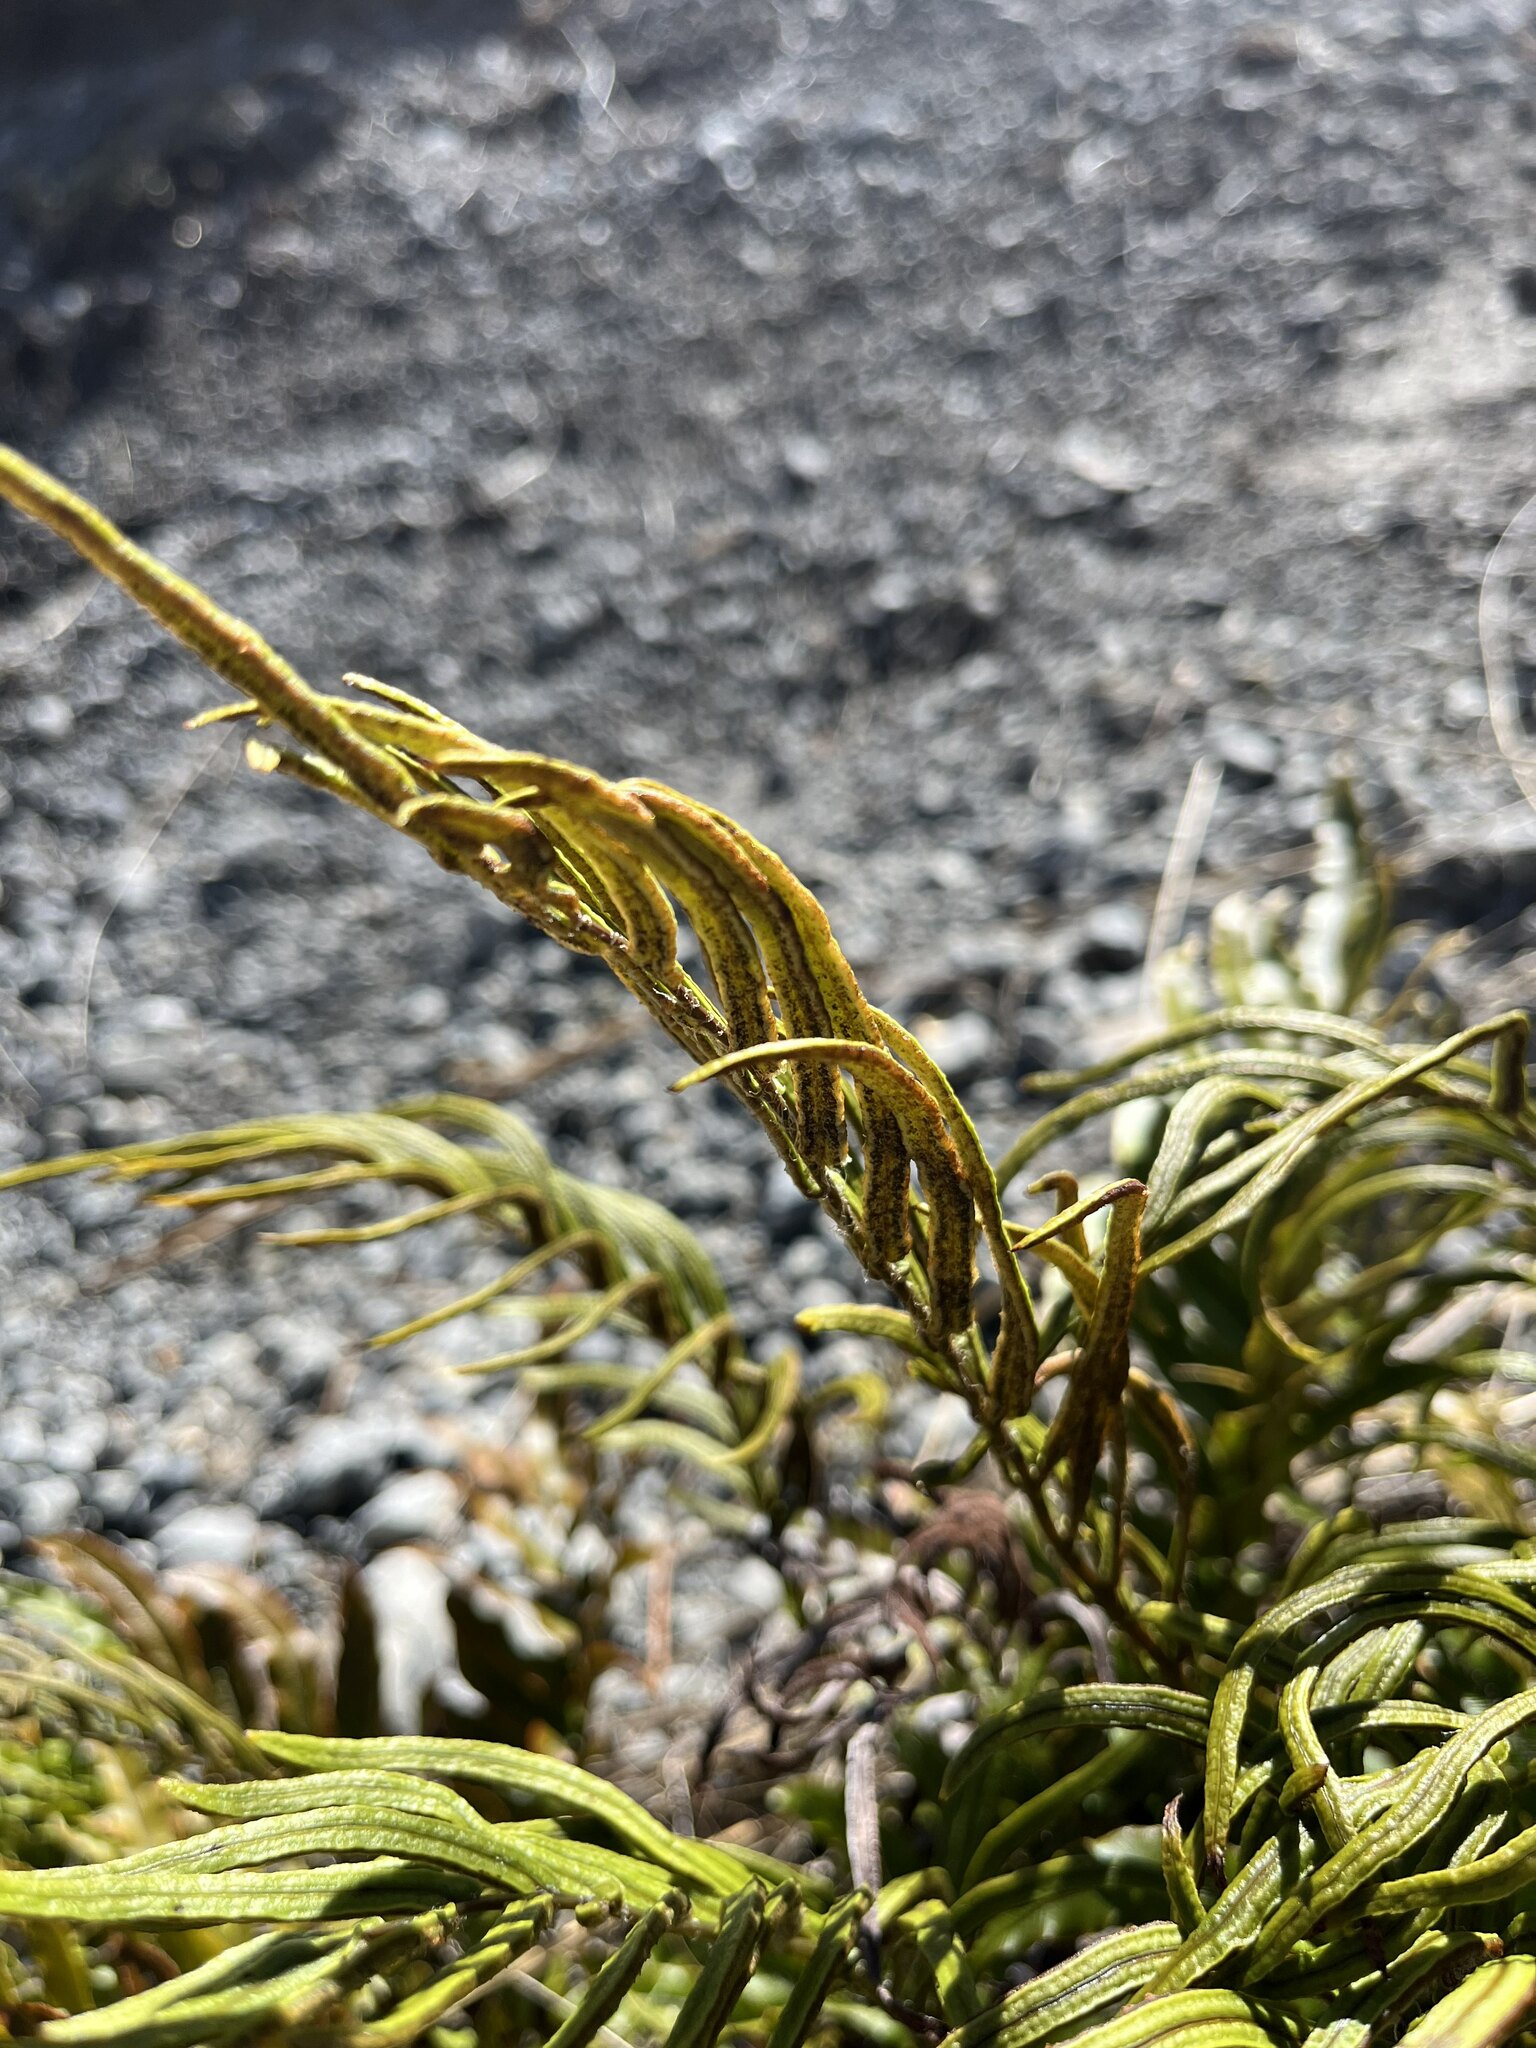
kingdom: Plantae
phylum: Tracheophyta
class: Polypodiopsida
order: Polypodiales
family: Blechnaceae
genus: Parablechnum
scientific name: Parablechnum montanum
